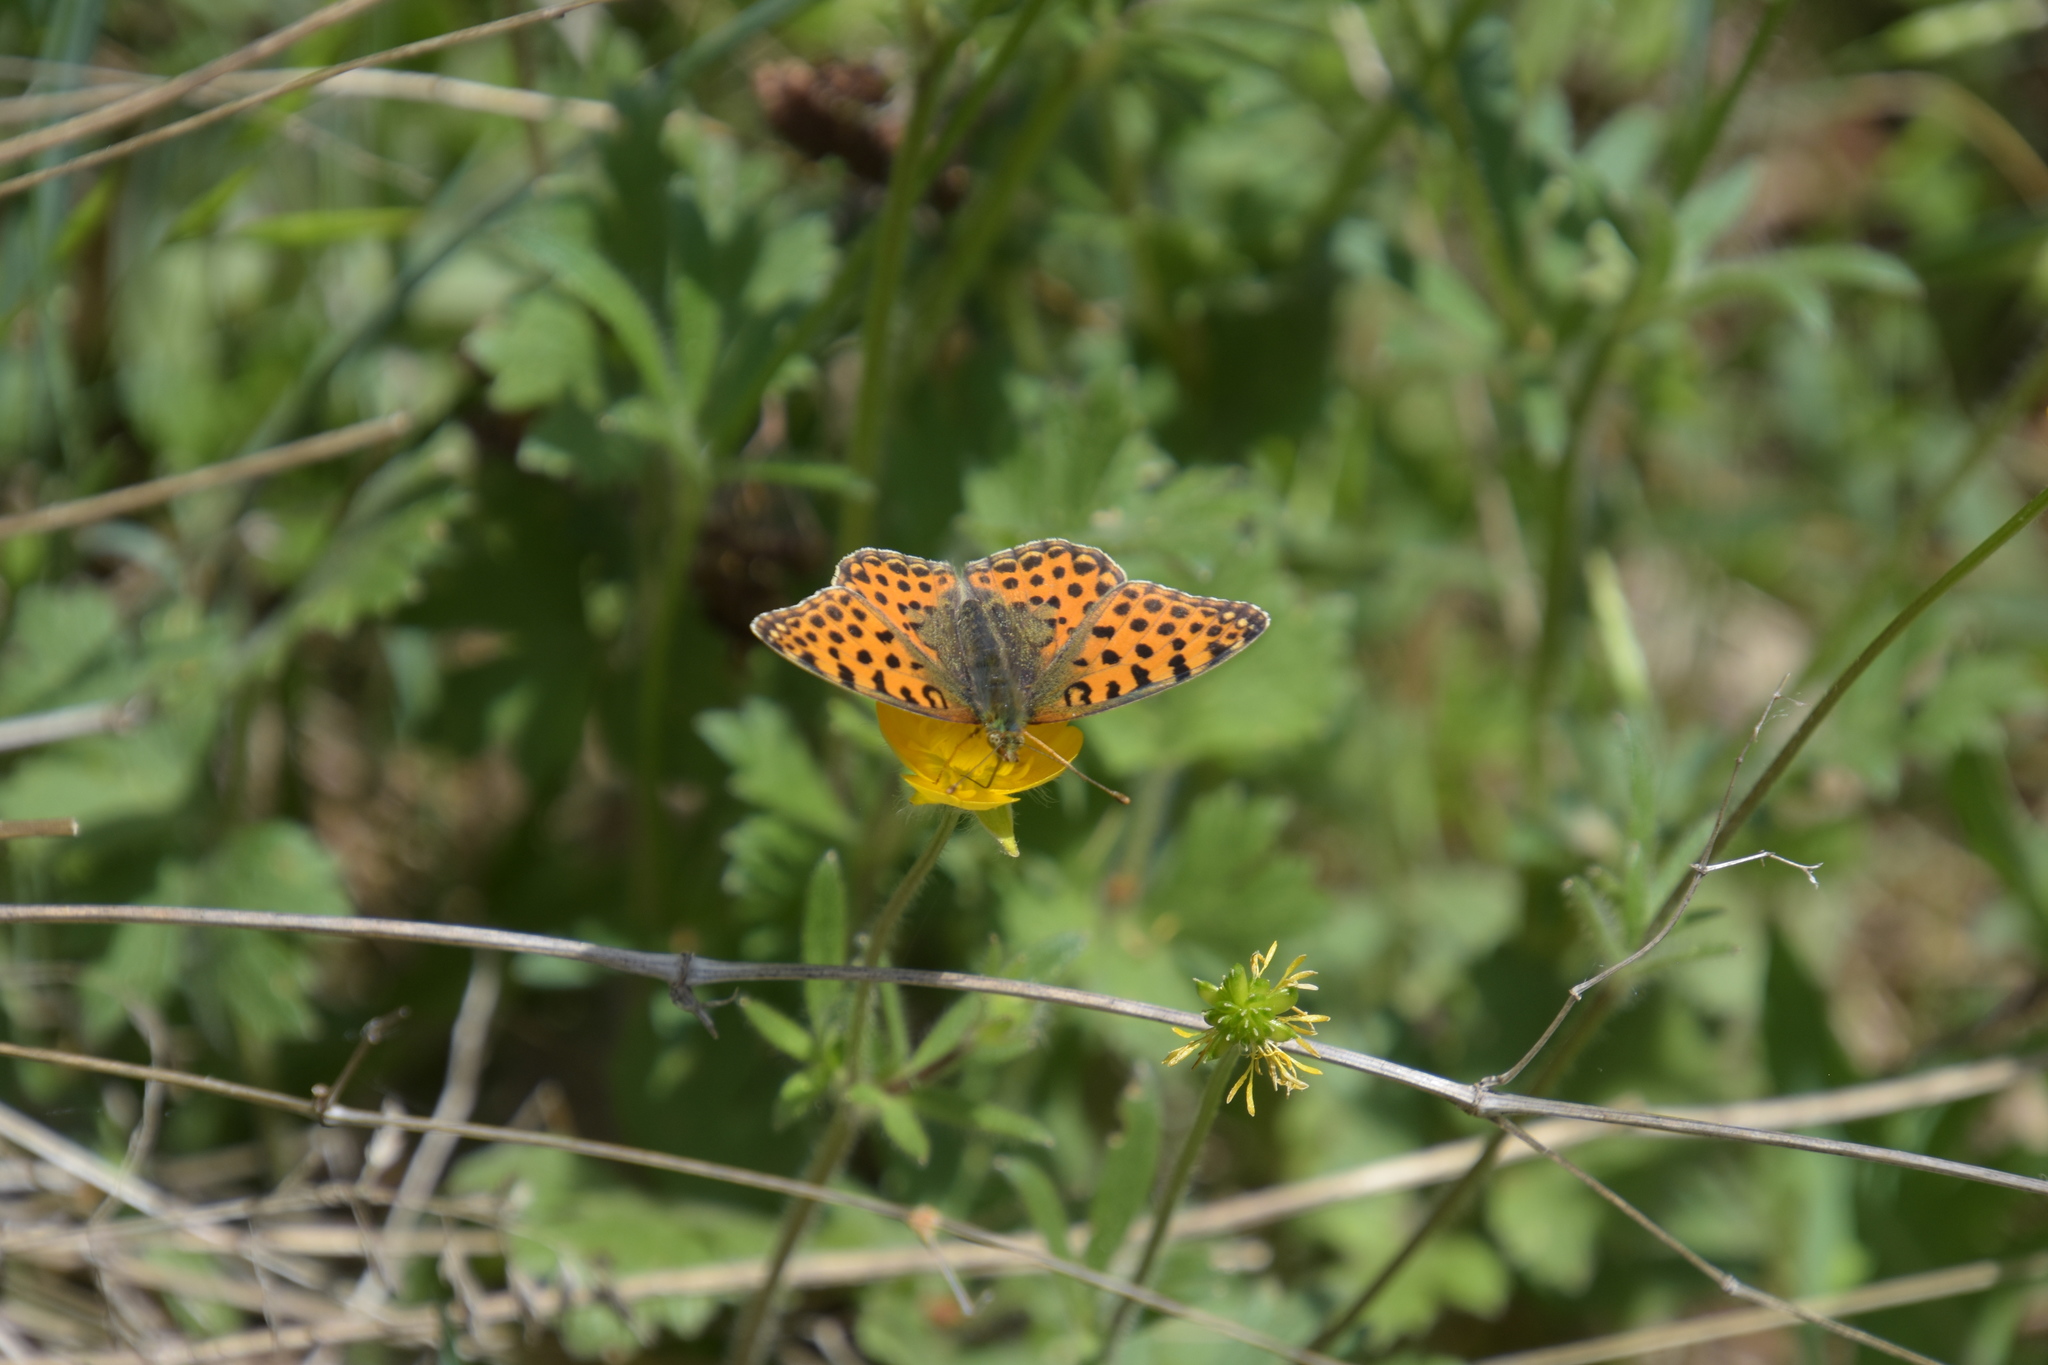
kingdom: Animalia
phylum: Arthropoda
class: Insecta
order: Lepidoptera
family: Nymphalidae
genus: Issoria
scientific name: Issoria lathonia
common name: Queen of spain fritillary
